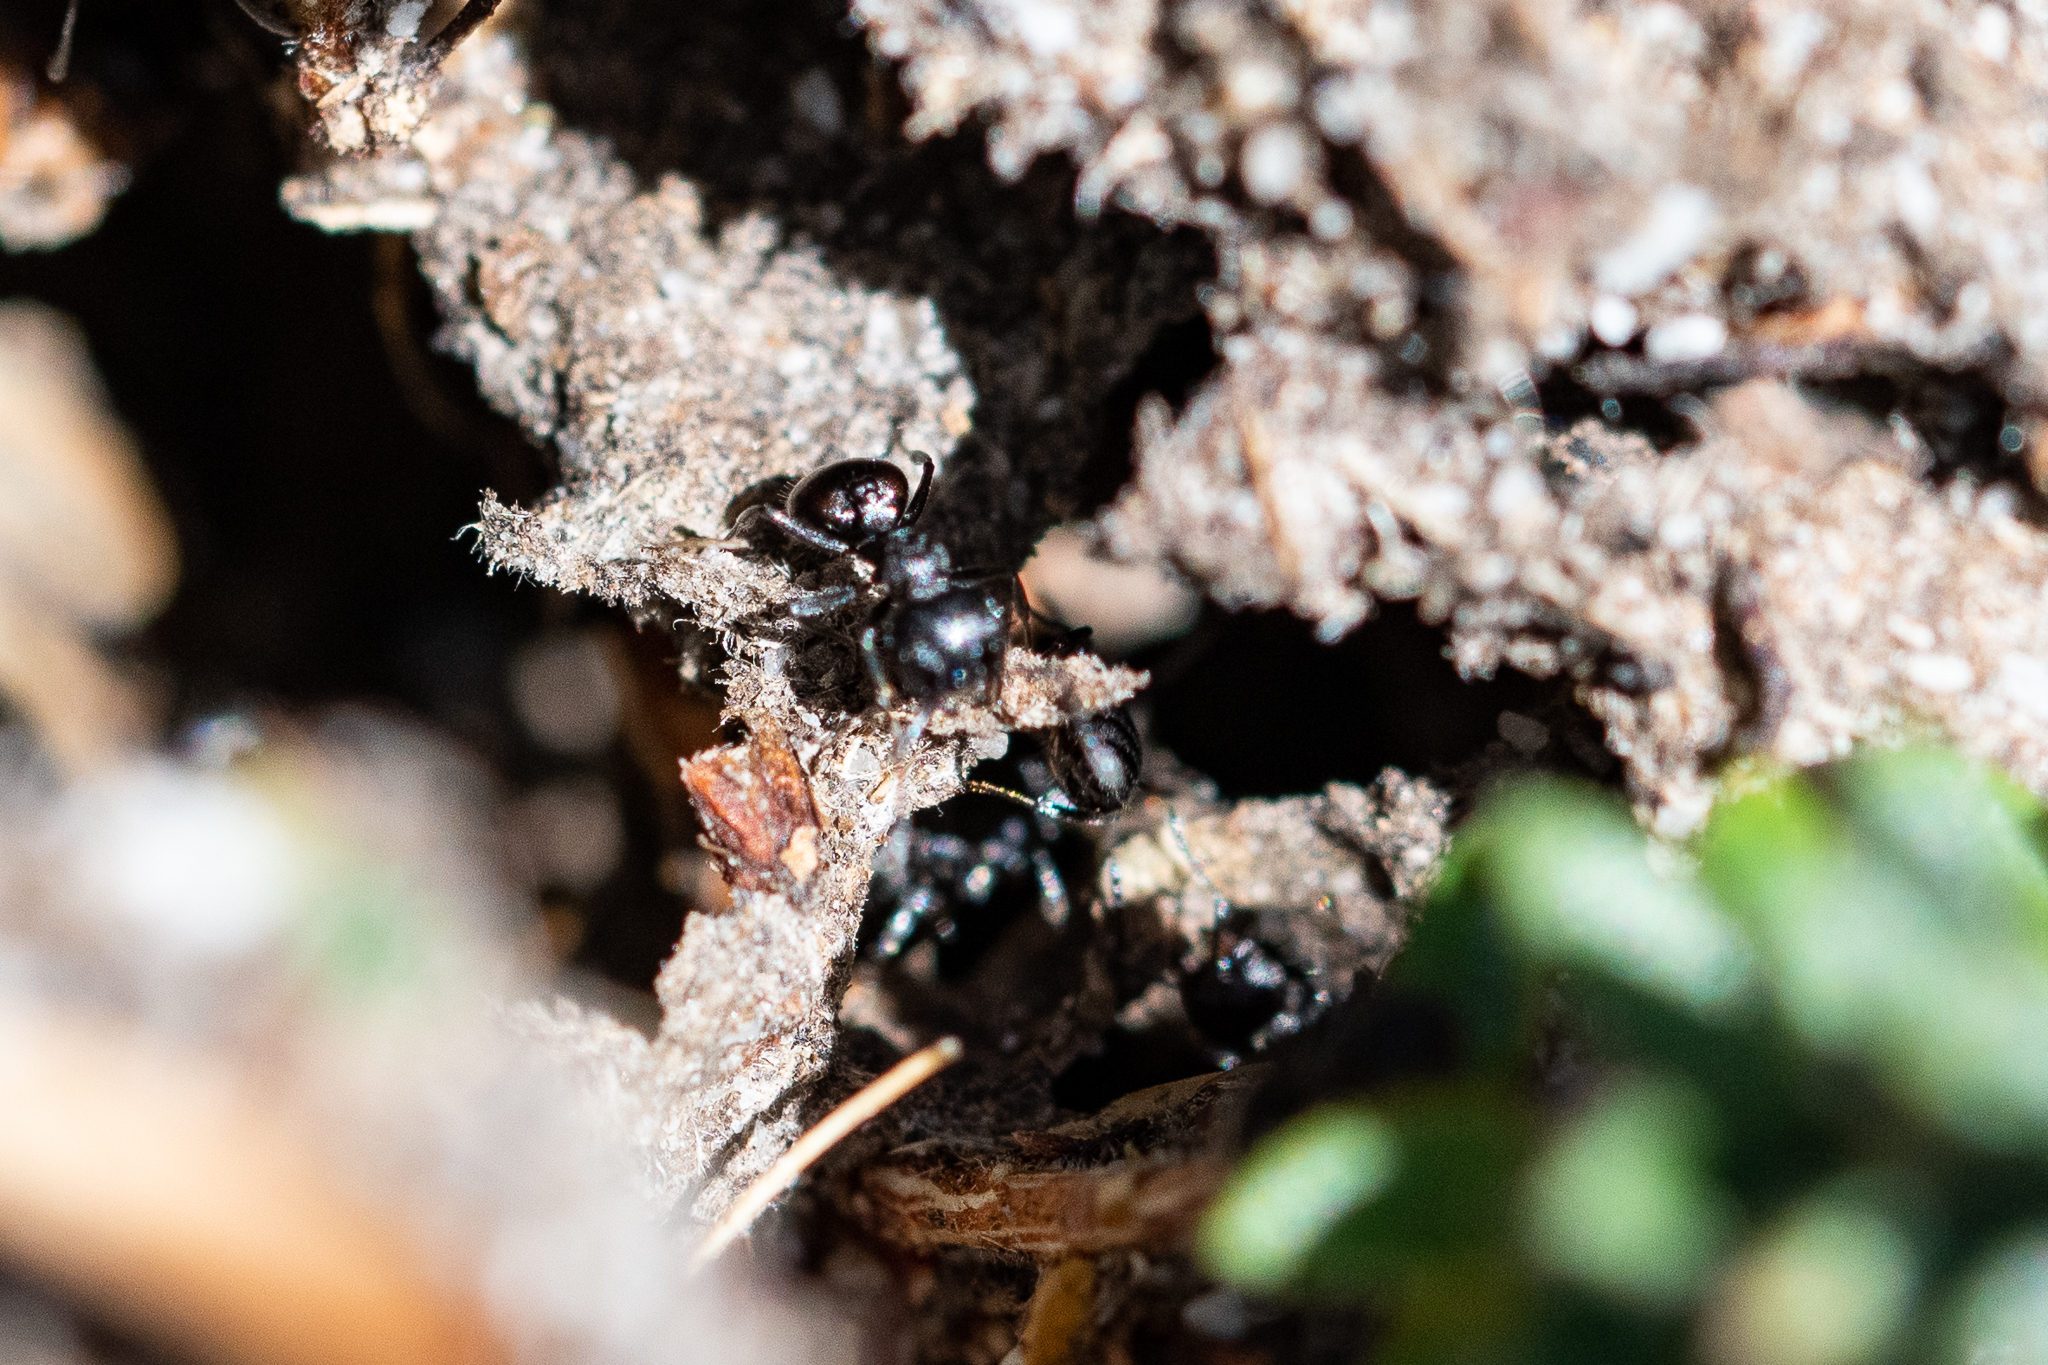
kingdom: Animalia
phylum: Arthropoda
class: Insecta
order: Hymenoptera
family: Formicidae
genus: Crematogaster
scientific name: Crematogaster peringueyi
